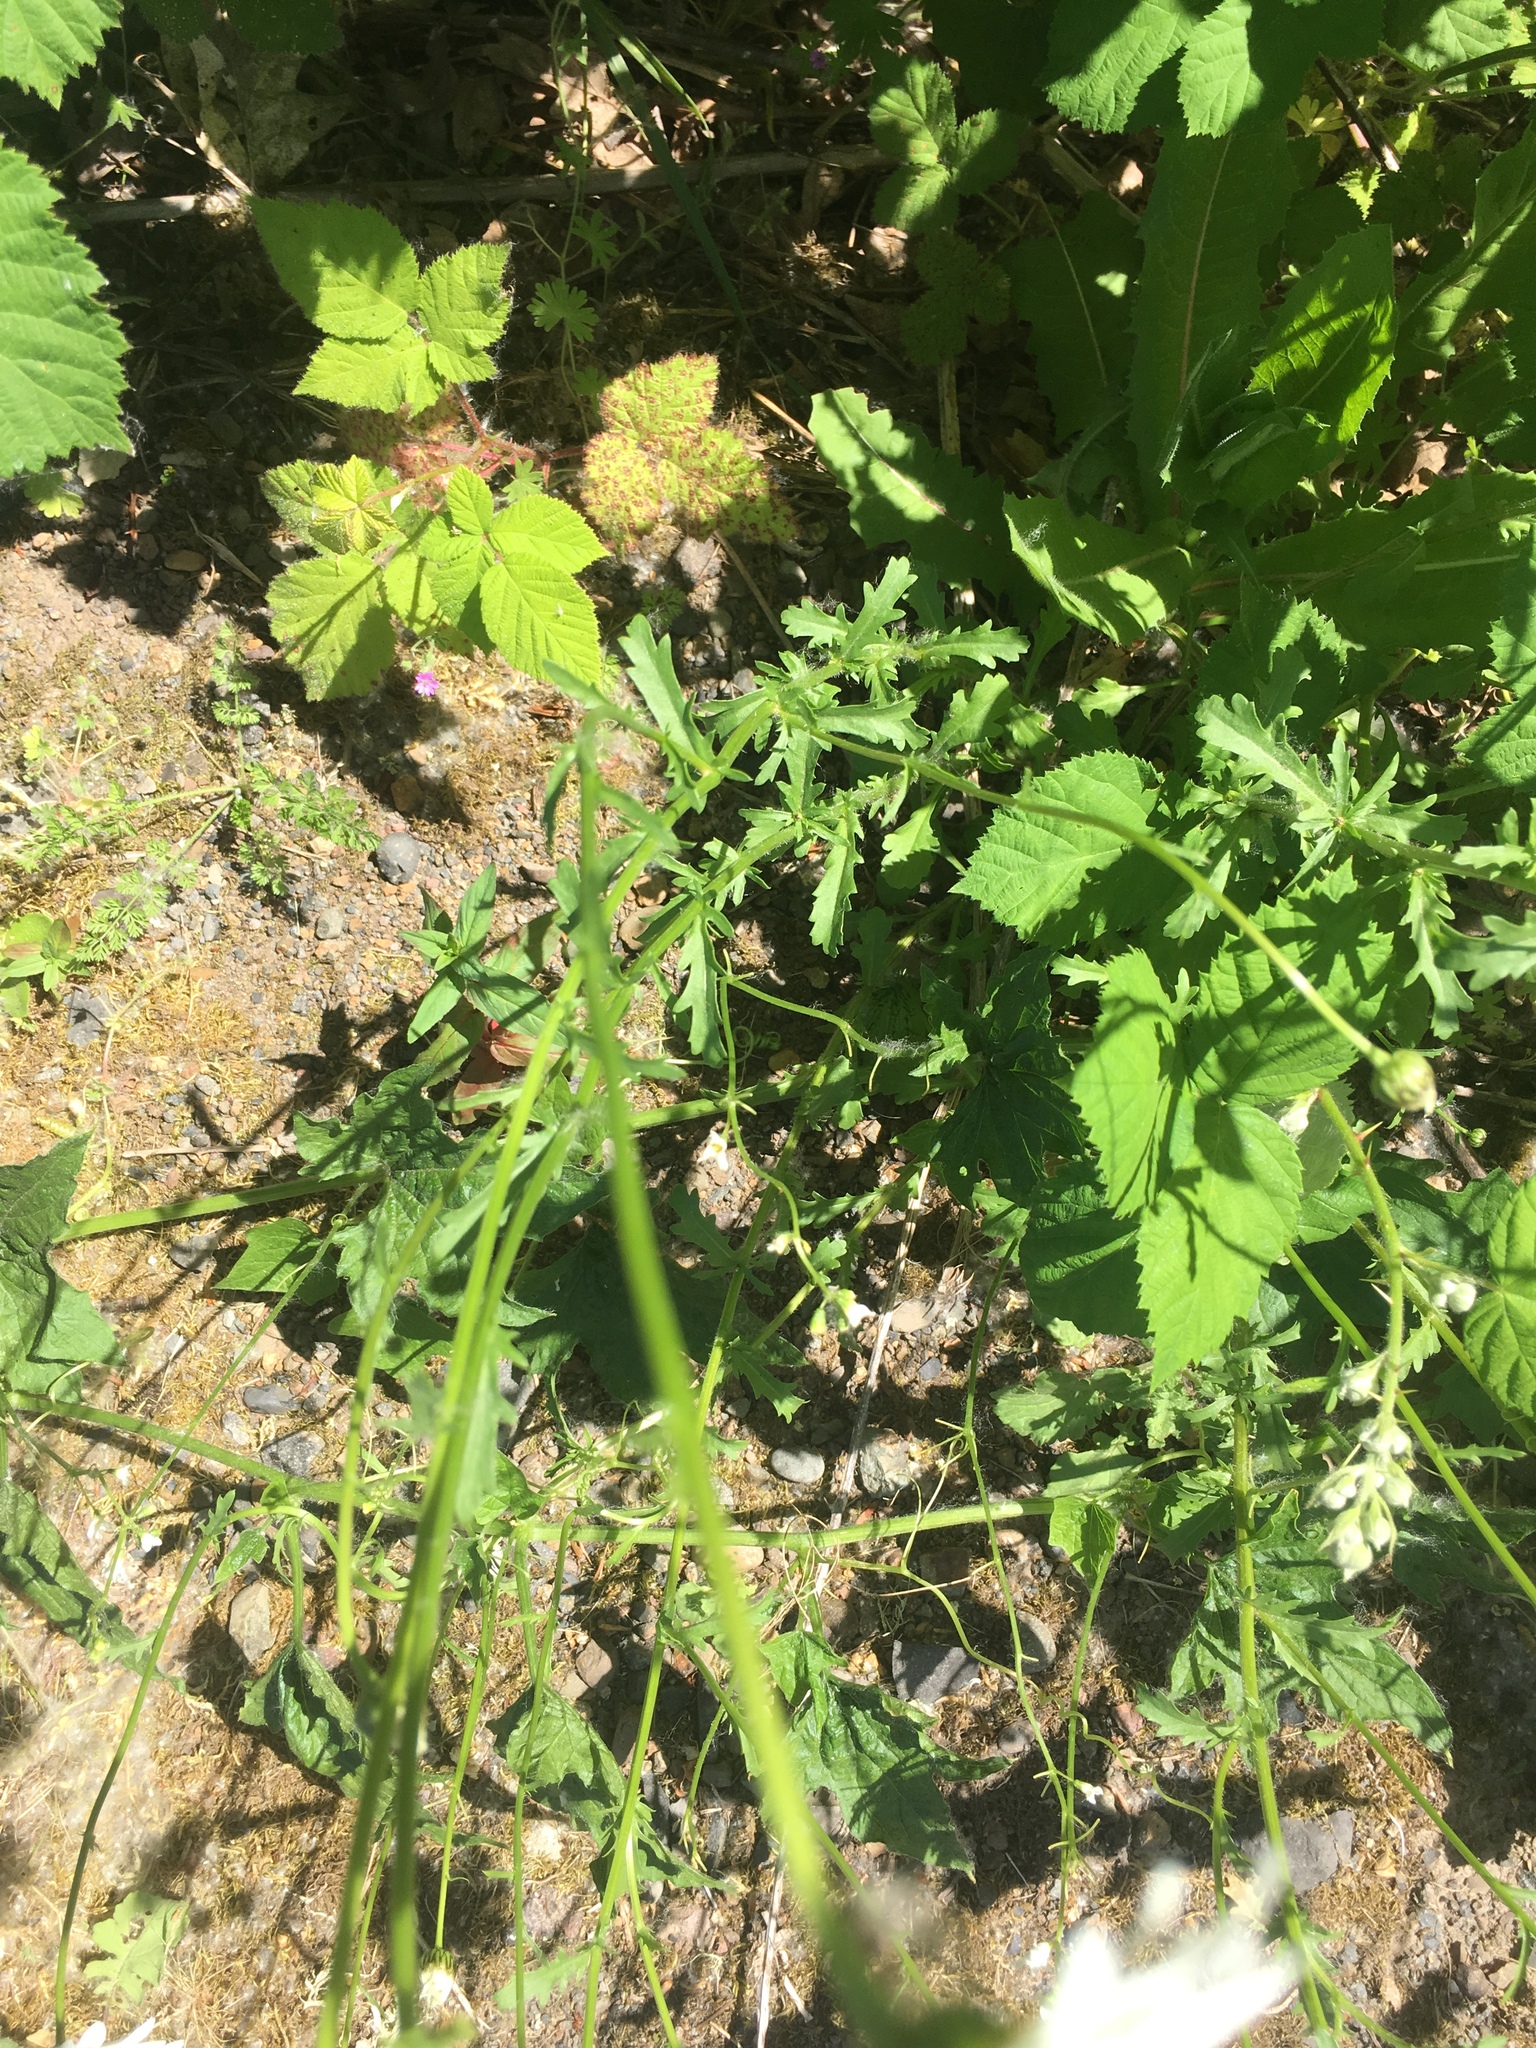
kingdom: Plantae
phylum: Tracheophyta
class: Magnoliopsida
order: Asterales
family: Asteraceae
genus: Leucanthemum
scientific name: Leucanthemum vulgare
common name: Oxeye daisy
